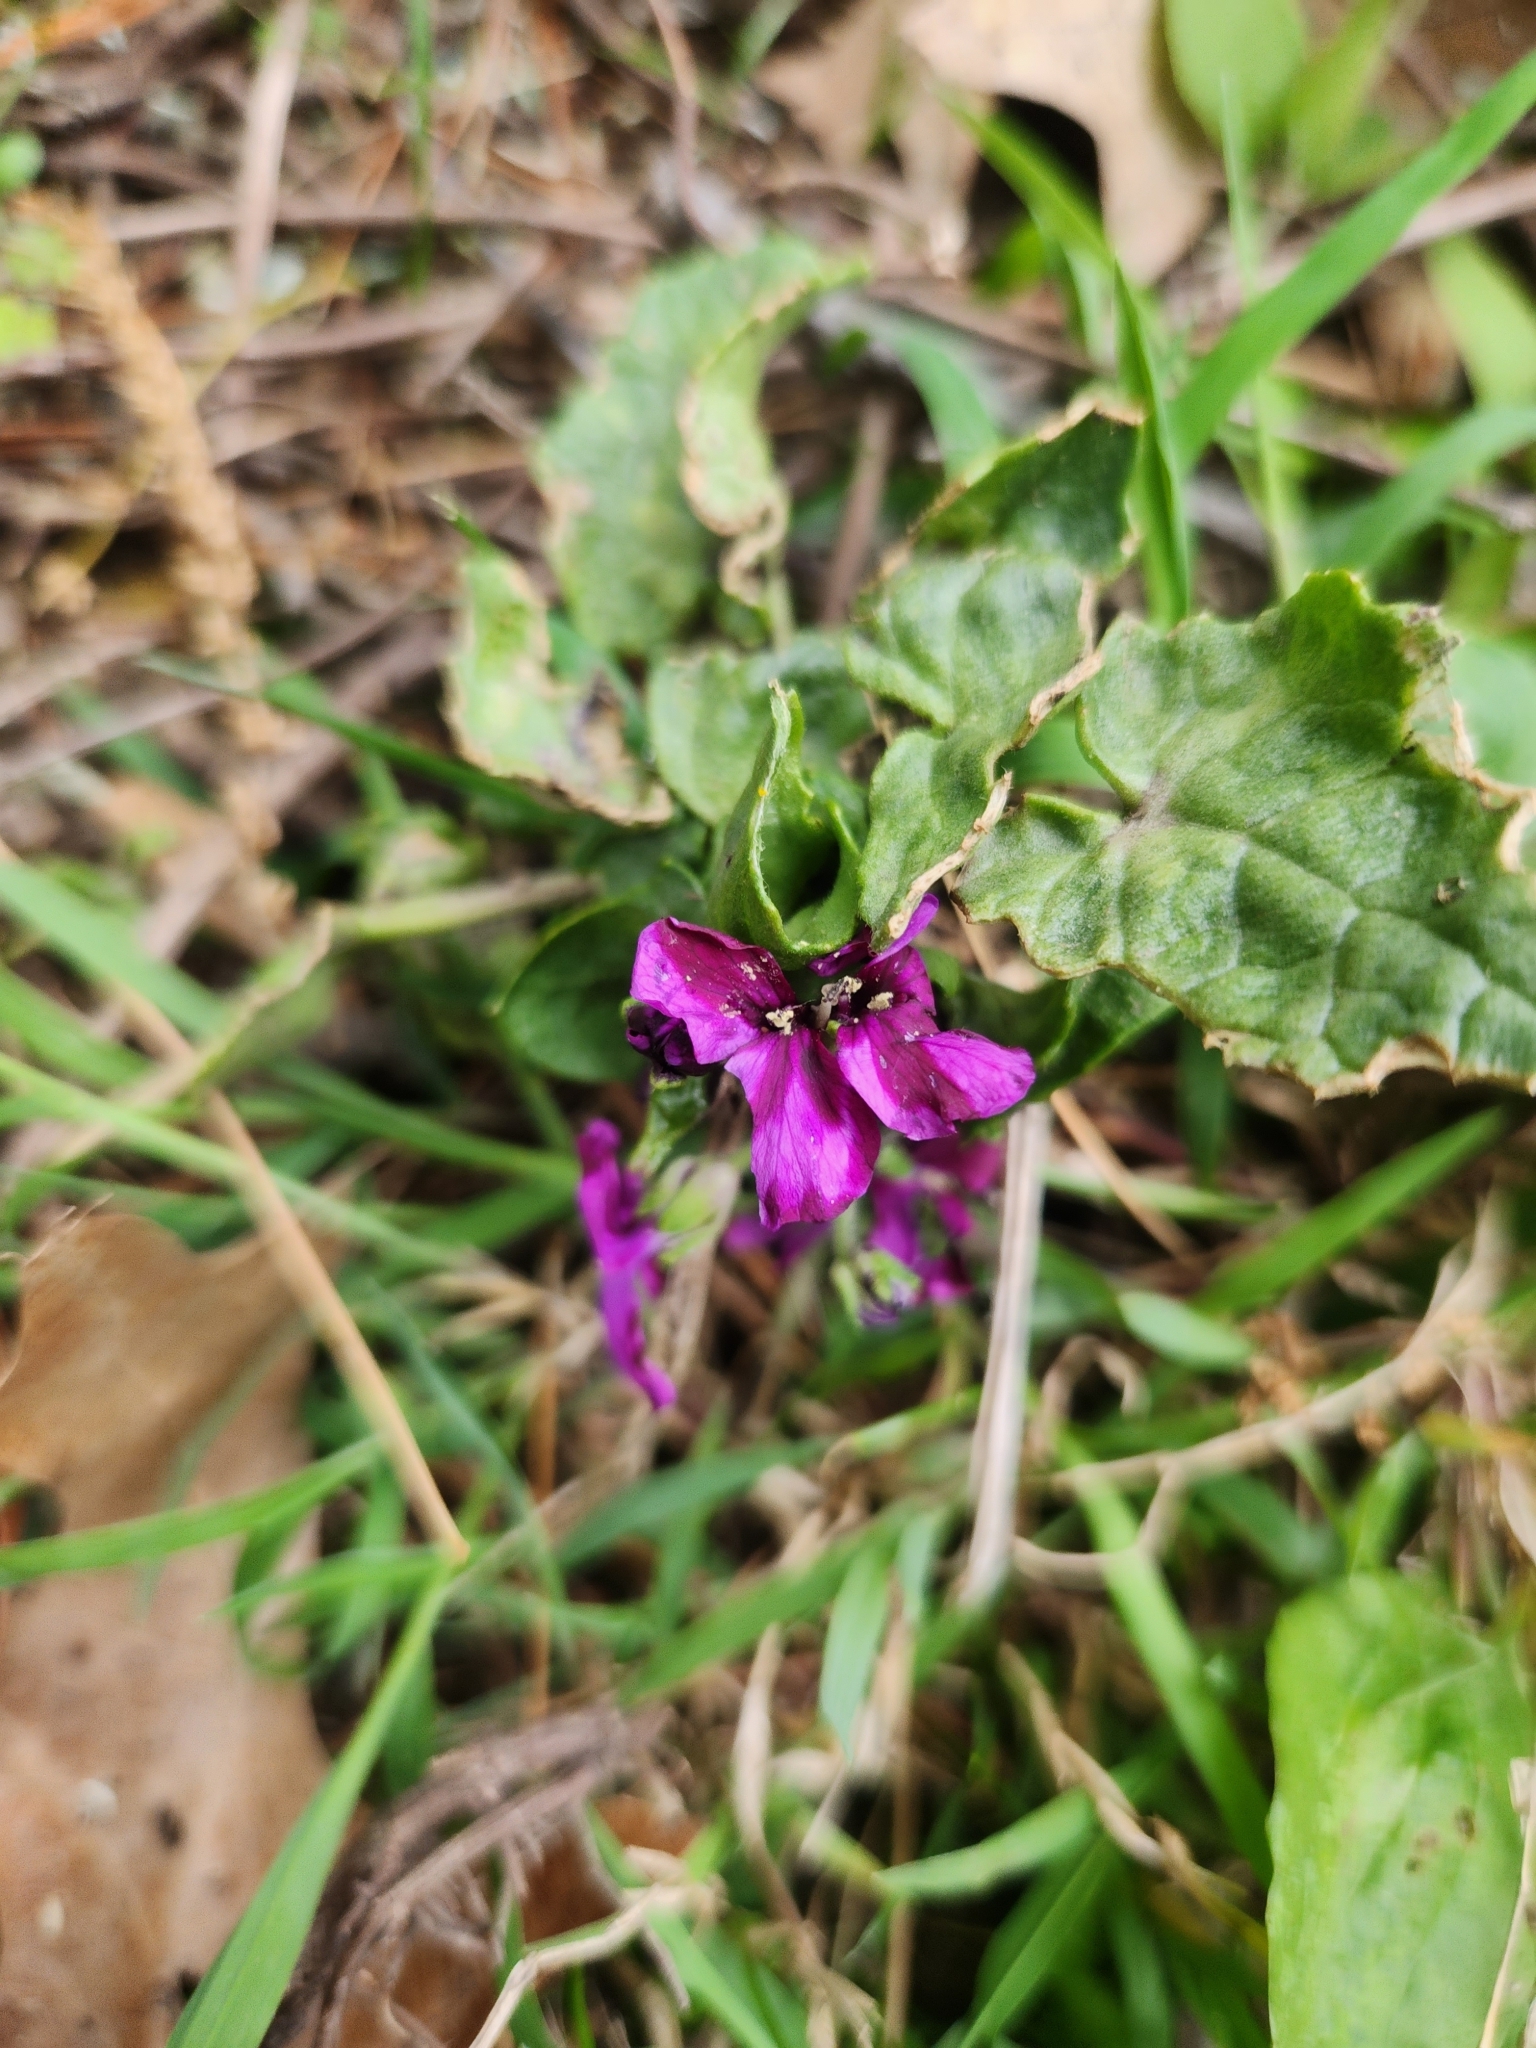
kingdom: Plantae
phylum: Tracheophyta
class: Magnoliopsida
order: Brassicales
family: Brassicaceae
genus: Lunaria
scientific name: Lunaria annua
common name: Honesty
